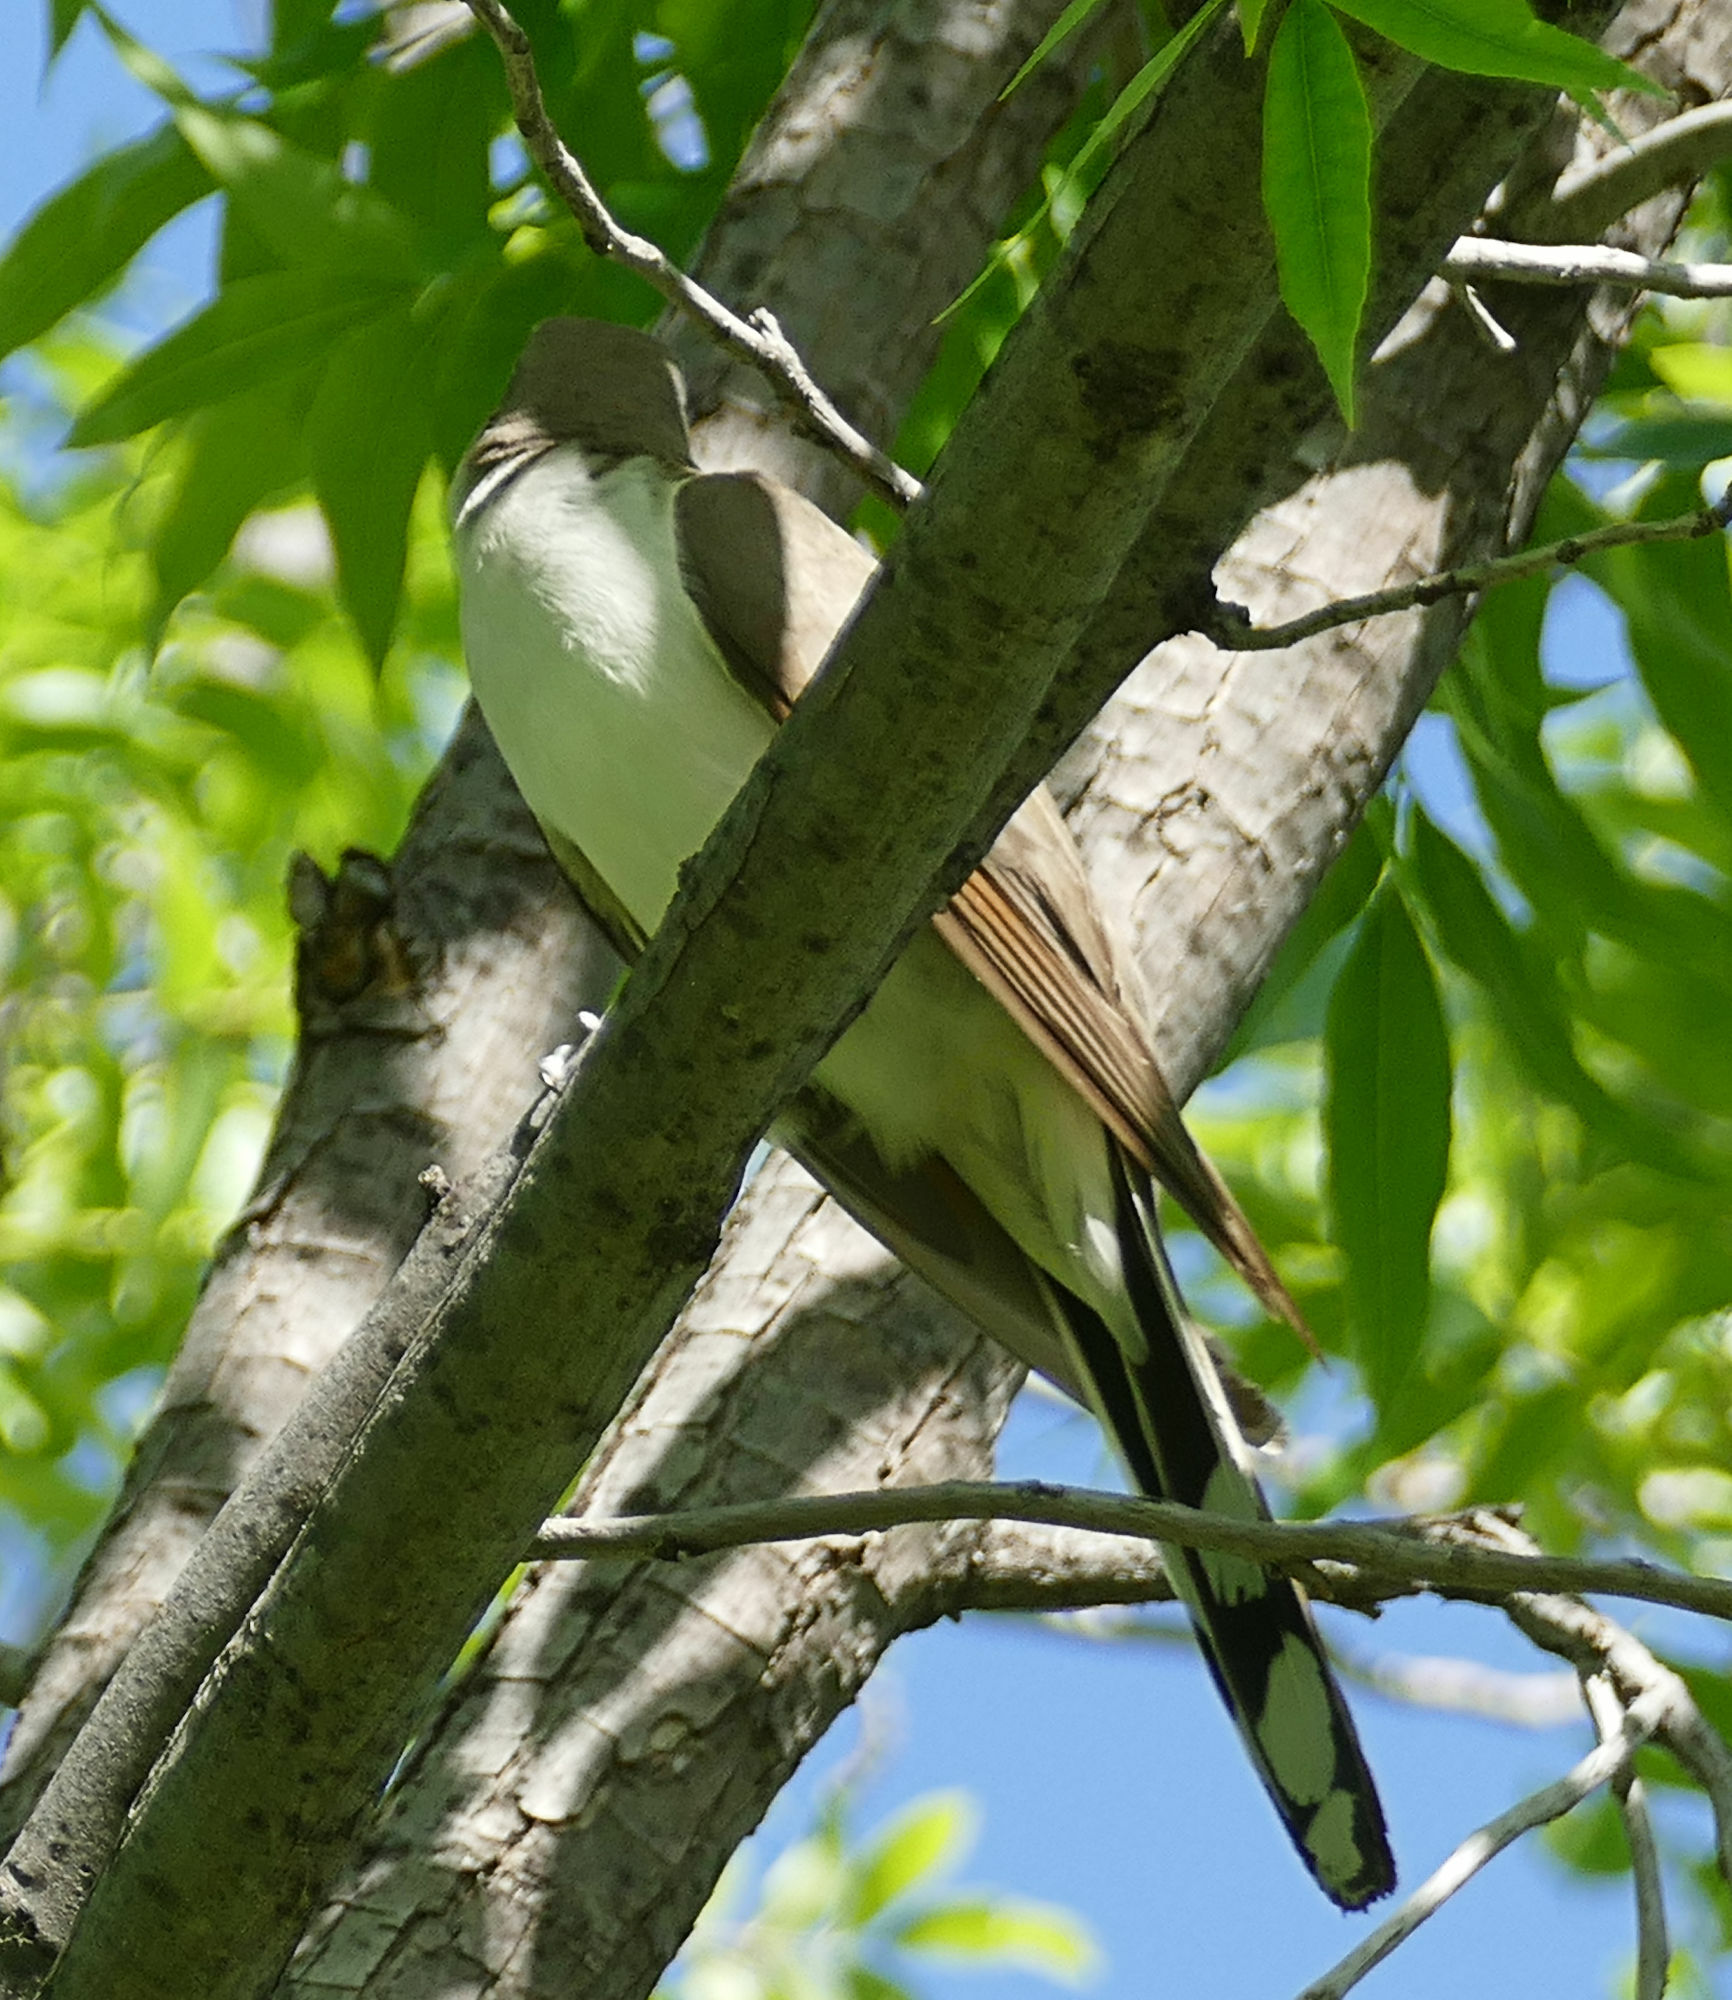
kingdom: Animalia
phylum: Chordata
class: Aves
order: Cuculiformes
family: Cuculidae
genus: Coccyzus
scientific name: Coccyzus americanus
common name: Yellow-billed cuckoo
